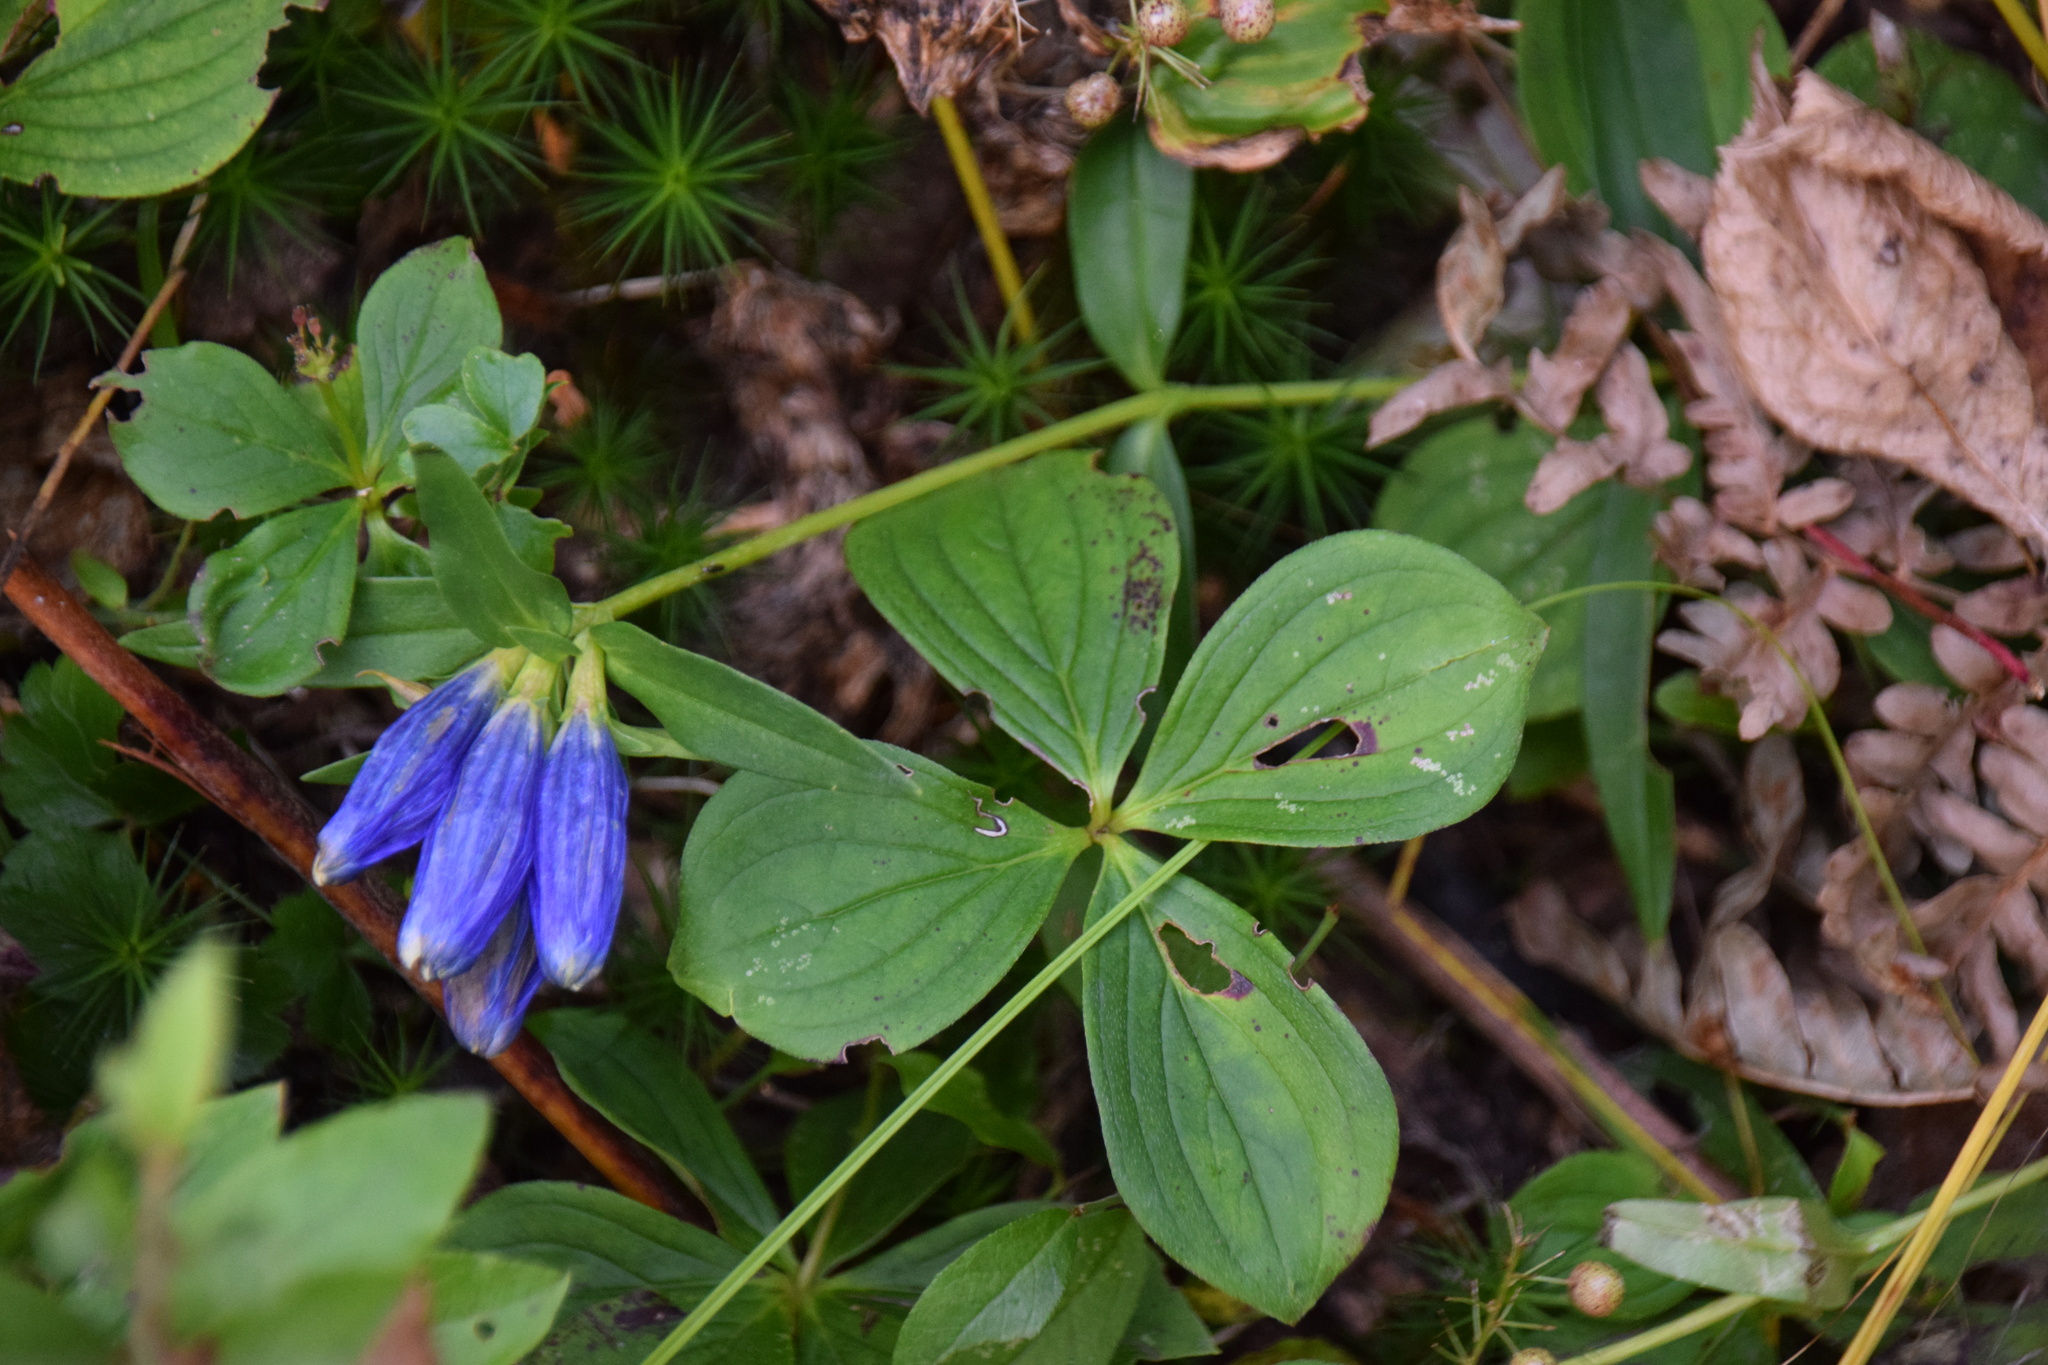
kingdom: Plantae
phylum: Tracheophyta
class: Magnoliopsida
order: Gentianales
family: Gentianaceae
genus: Gentiana
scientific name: Gentiana linearis
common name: Bastard gentian
